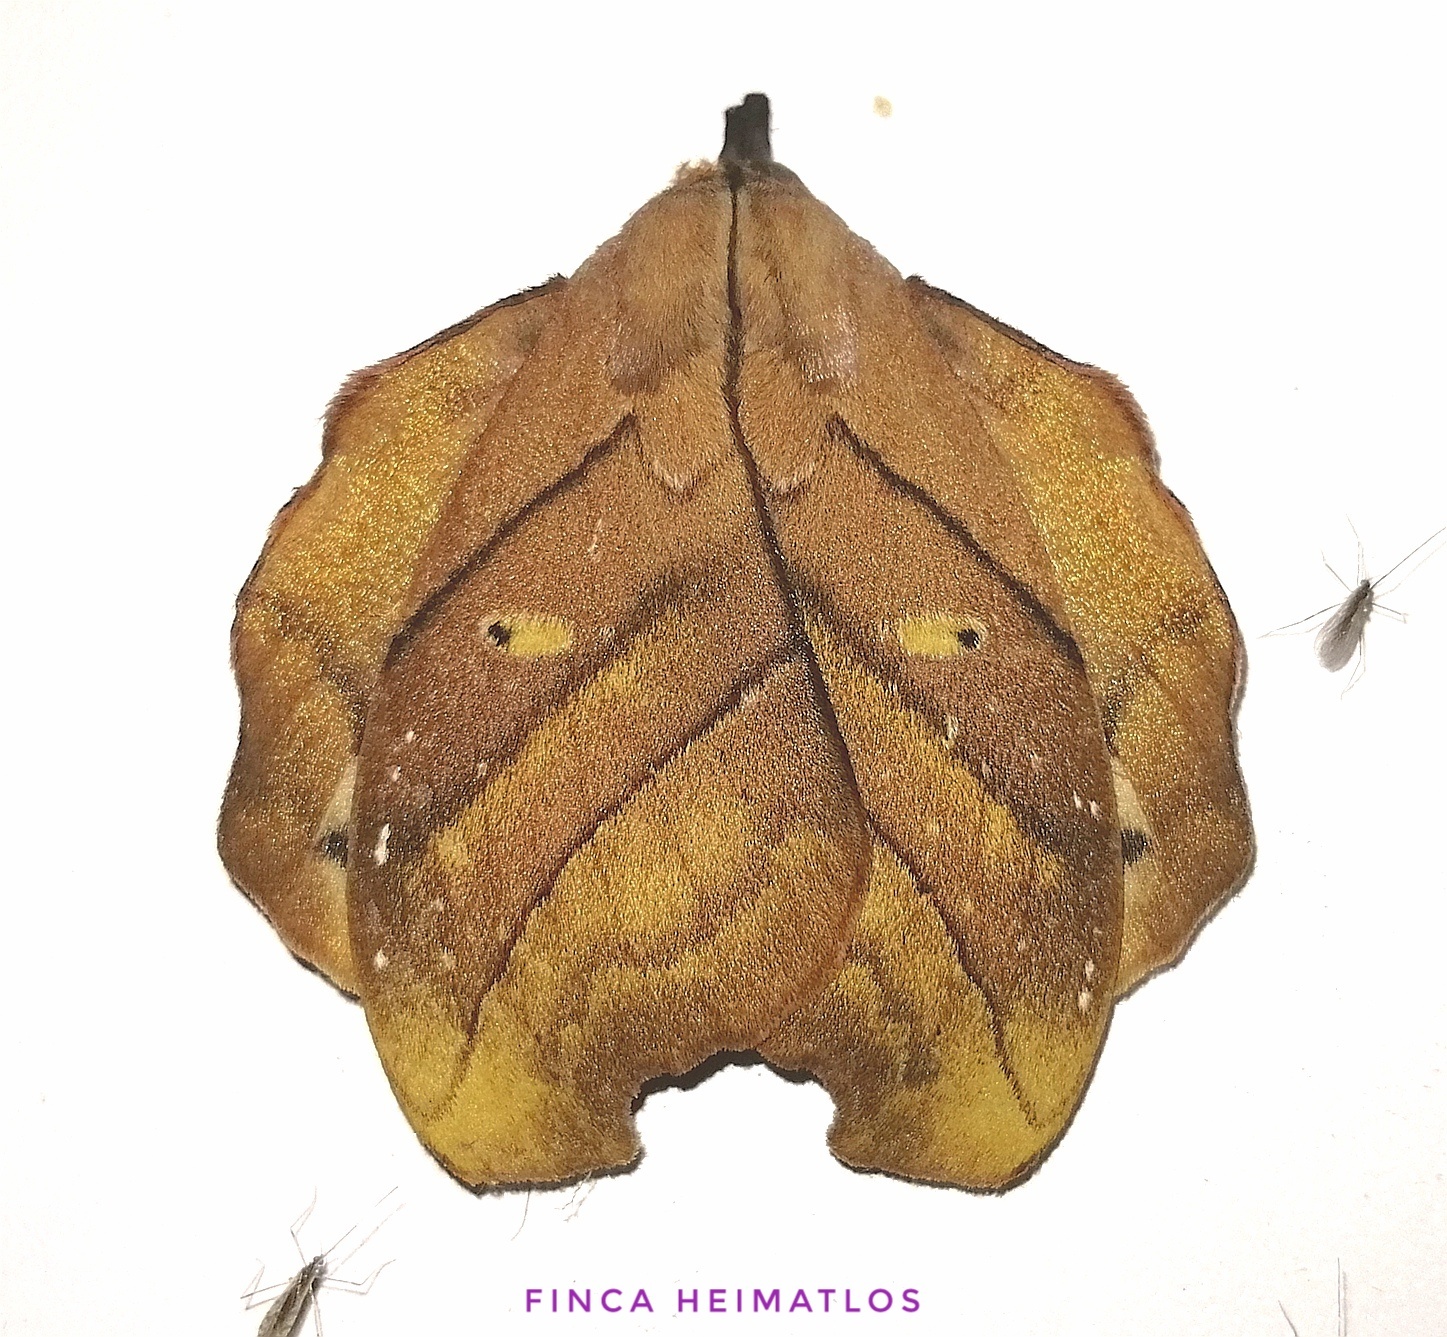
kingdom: Animalia
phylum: Arthropoda
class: Insecta
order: Lepidoptera
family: Saturniidae
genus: Hyperchiria
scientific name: Hyperchiria nausica
